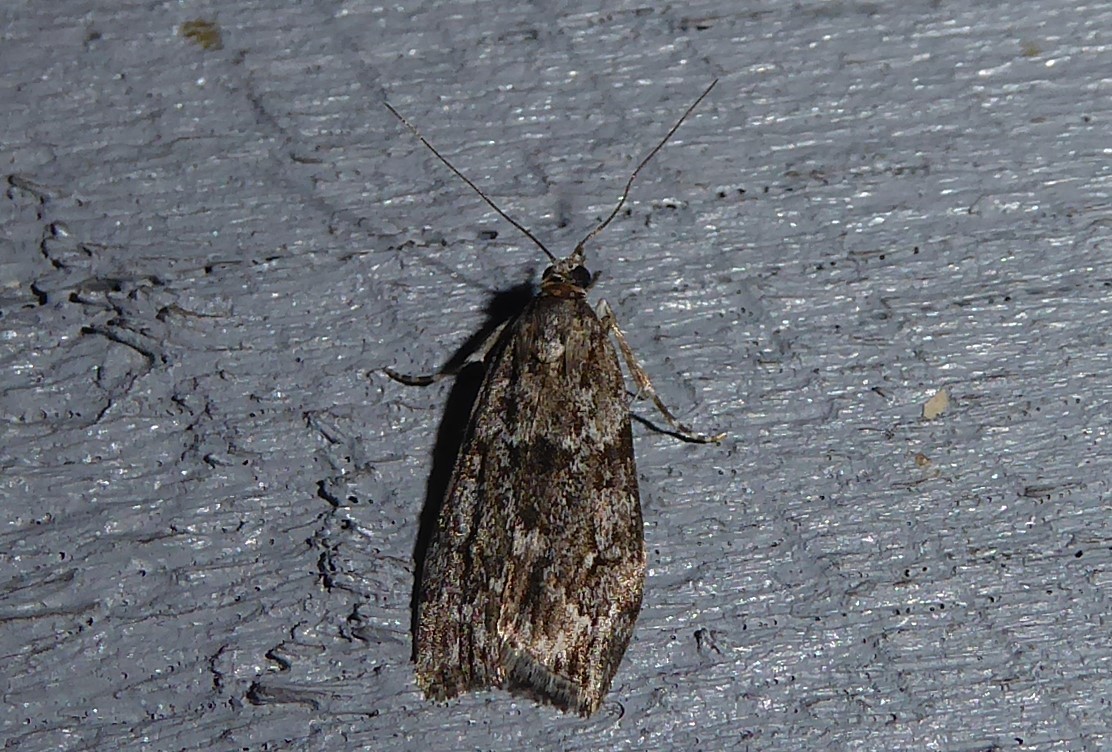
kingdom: Animalia
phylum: Arthropoda
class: Insecta
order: Lepidoptera
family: Crambidae
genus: Eudonia
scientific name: Eudonia cymatias
